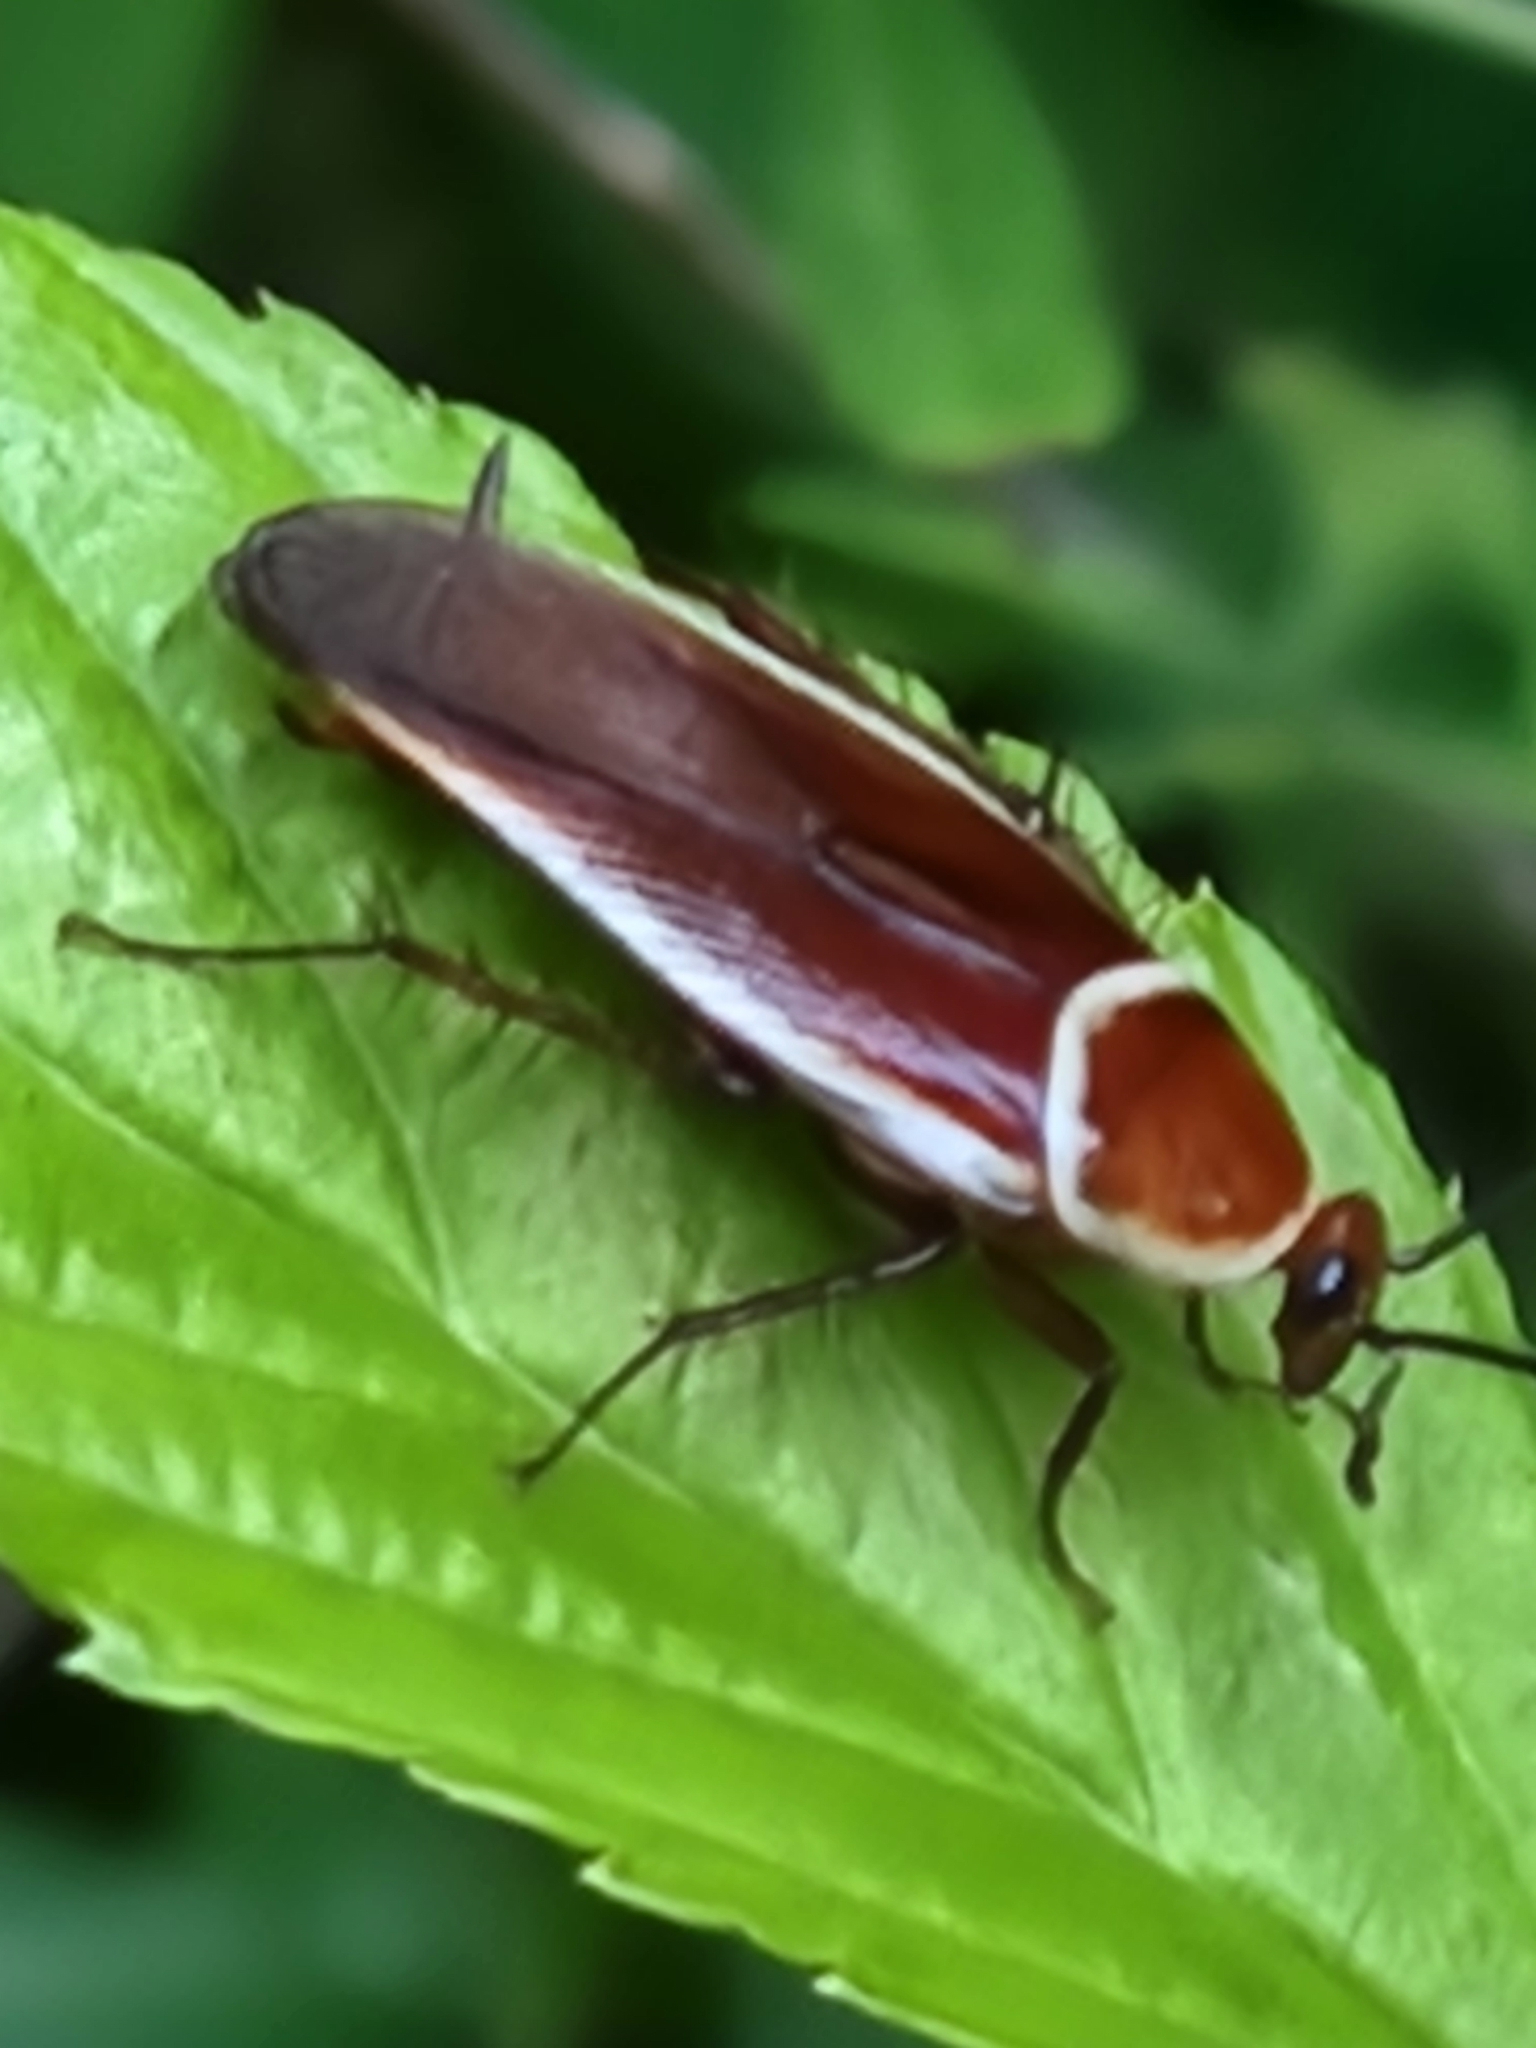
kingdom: Animalia
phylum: Arthropoda
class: Insecta
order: Blattodea
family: Ectobiidae
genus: Pseudomops
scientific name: Pseudomops septentrionalis
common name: Pale-bordered field cockroach
